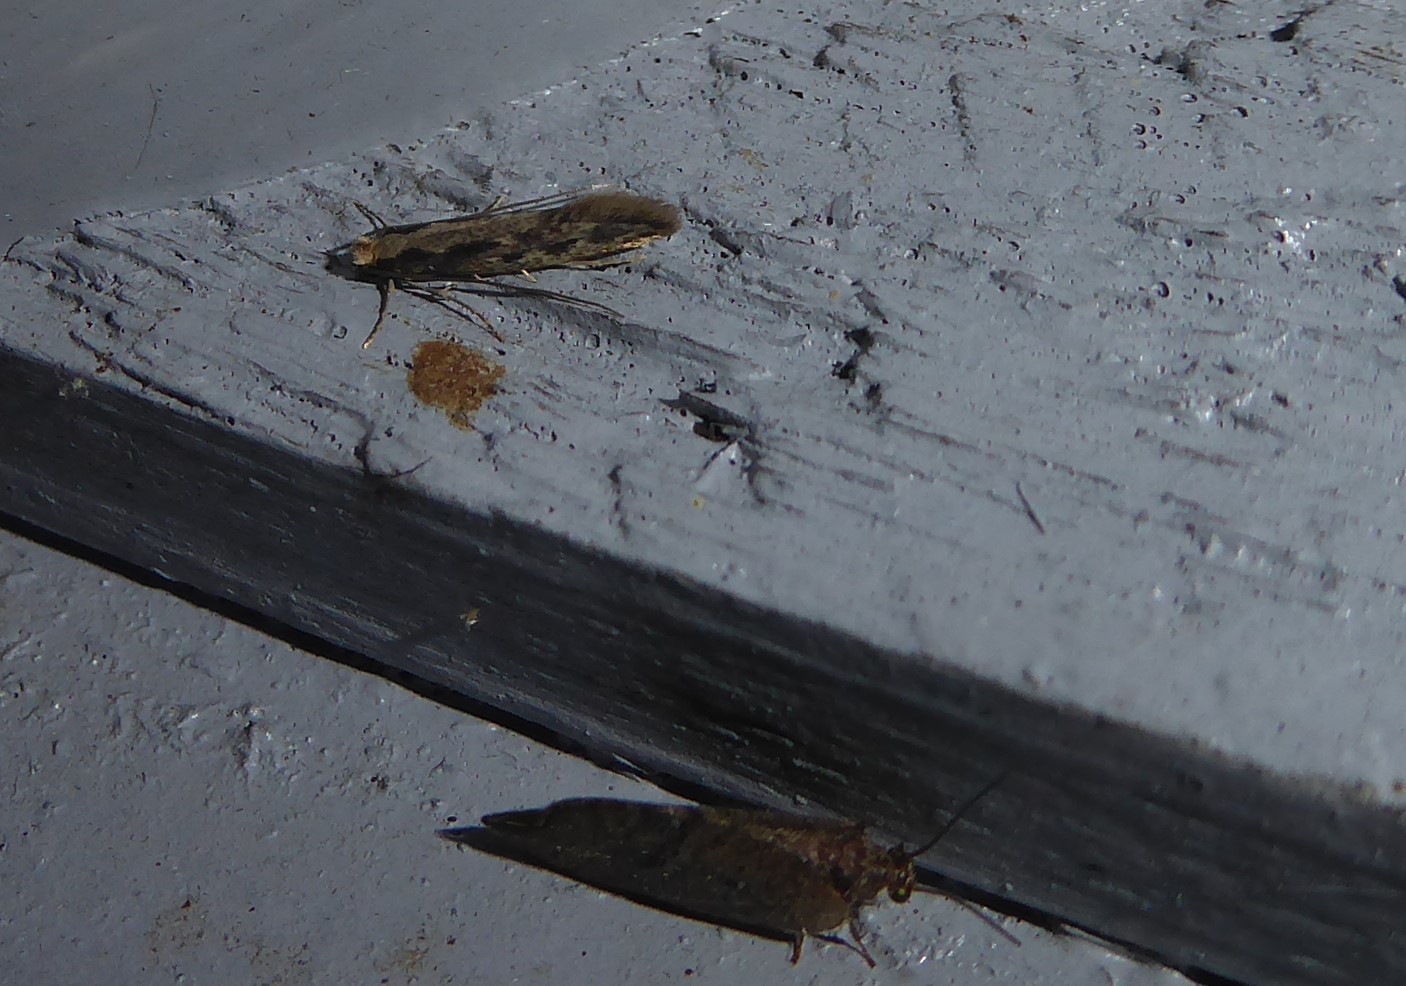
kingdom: Animalia
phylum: Arthropoda
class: Insecta
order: Lepidoptera
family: Tineidae
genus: Tinea
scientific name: Tinea pallescentella
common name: Large pale clothes moth
